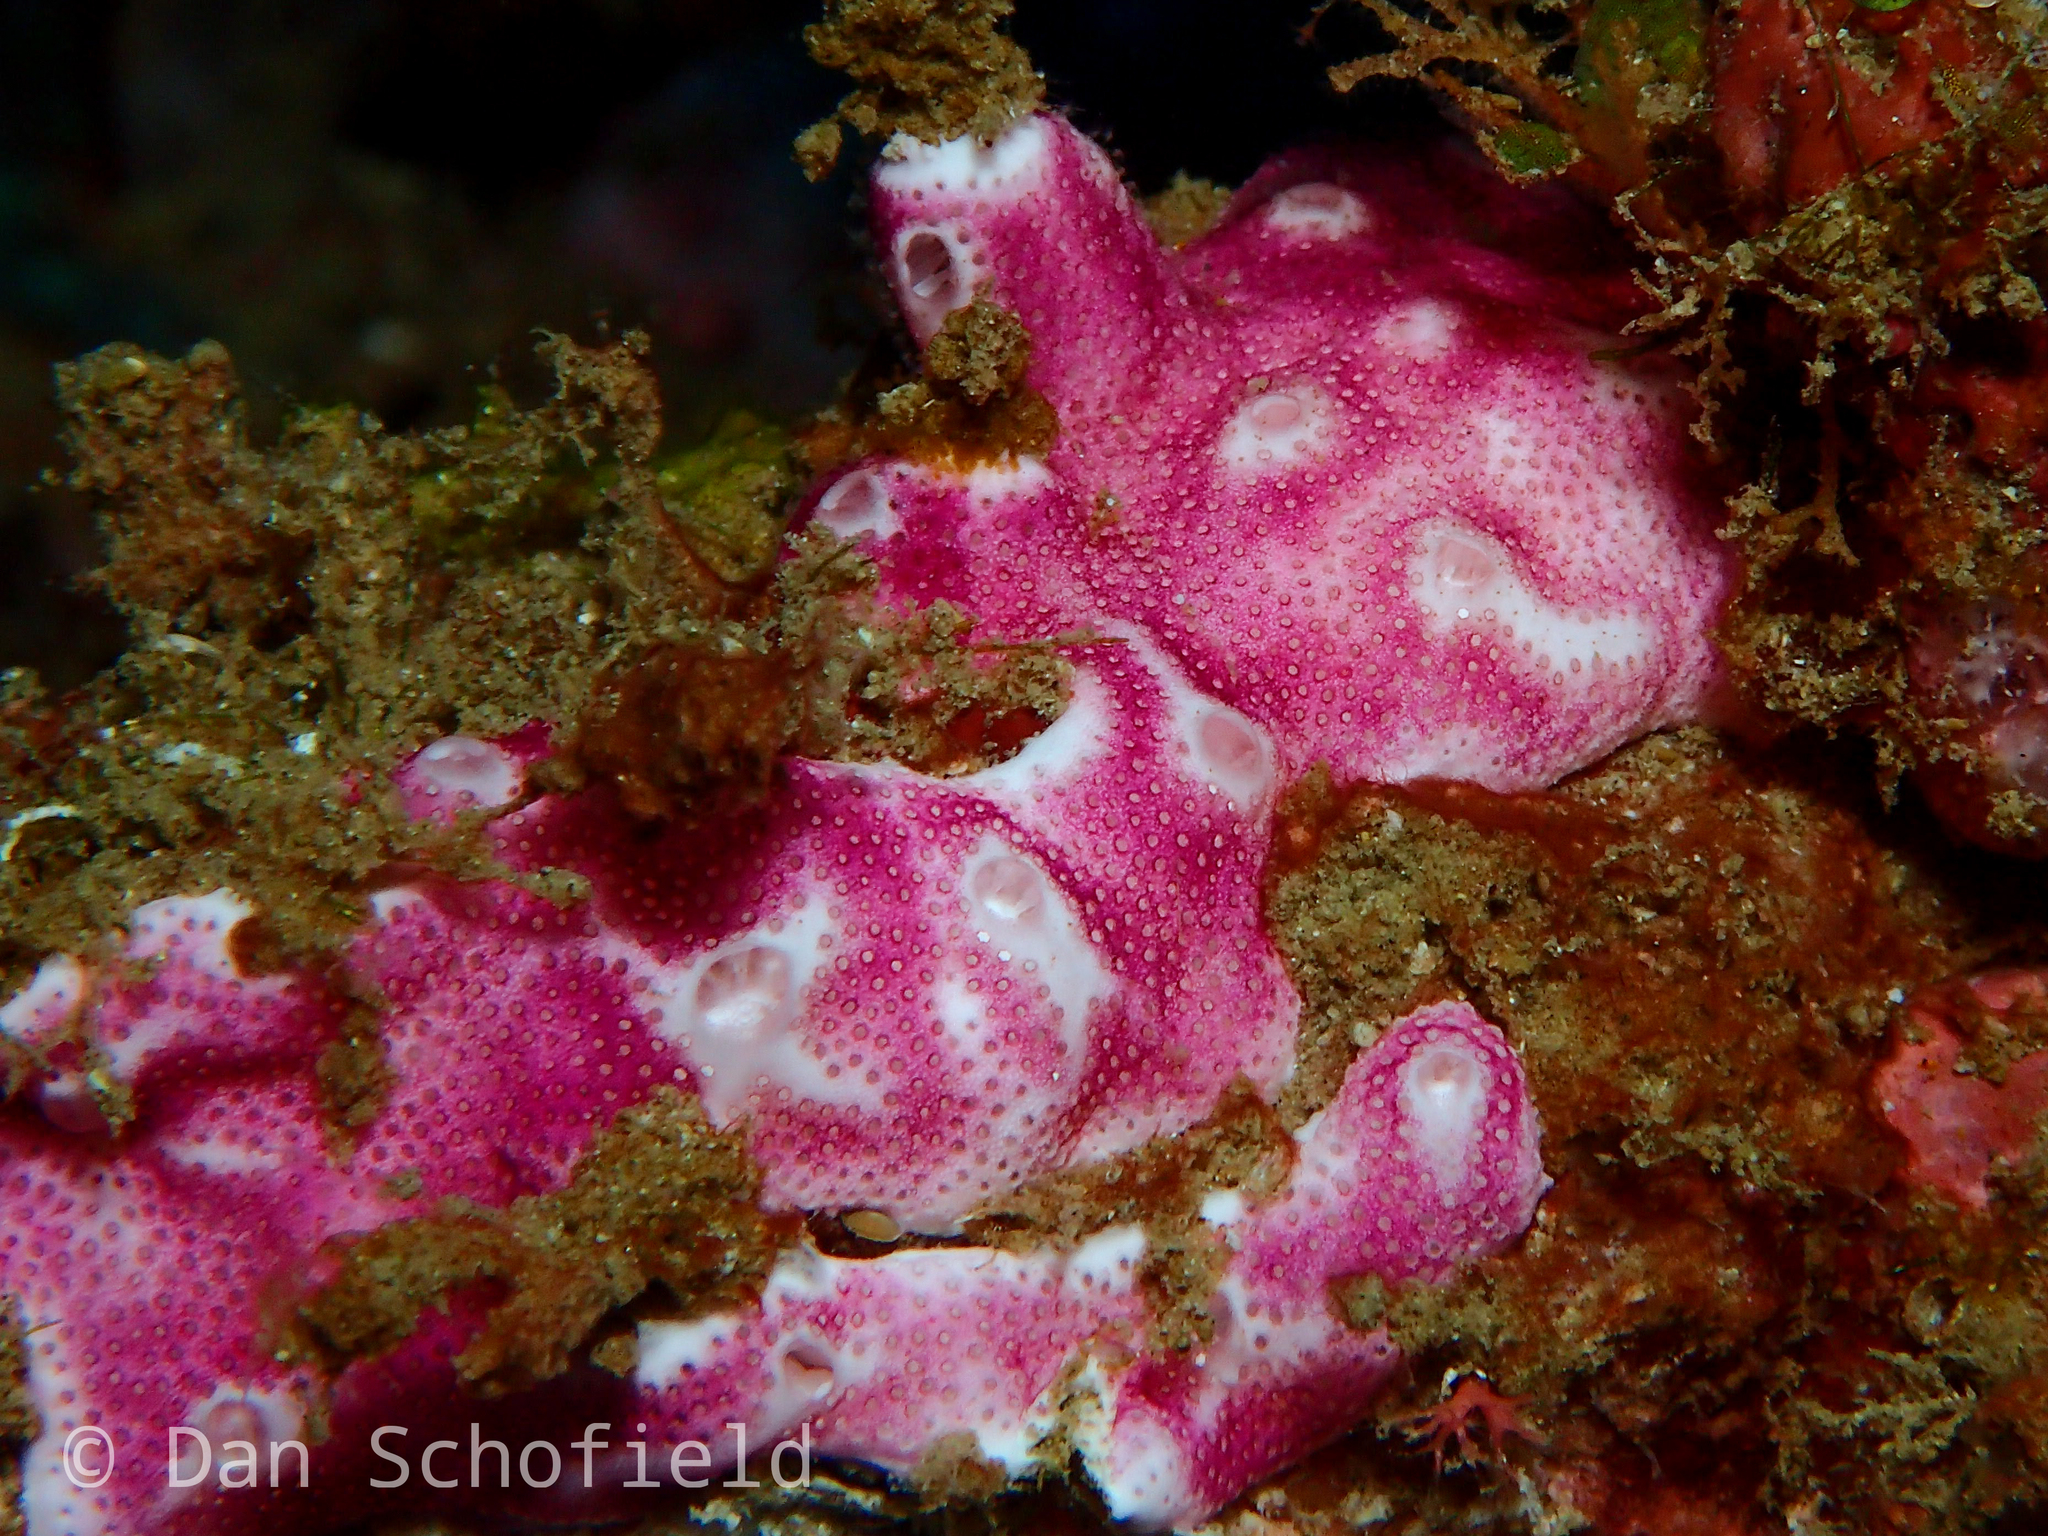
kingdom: Animalia
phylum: Chordata
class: Ascidiacea
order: Aplousobranchia
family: Didemnidae
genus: Didemnum
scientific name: Didemnum membranaceum
